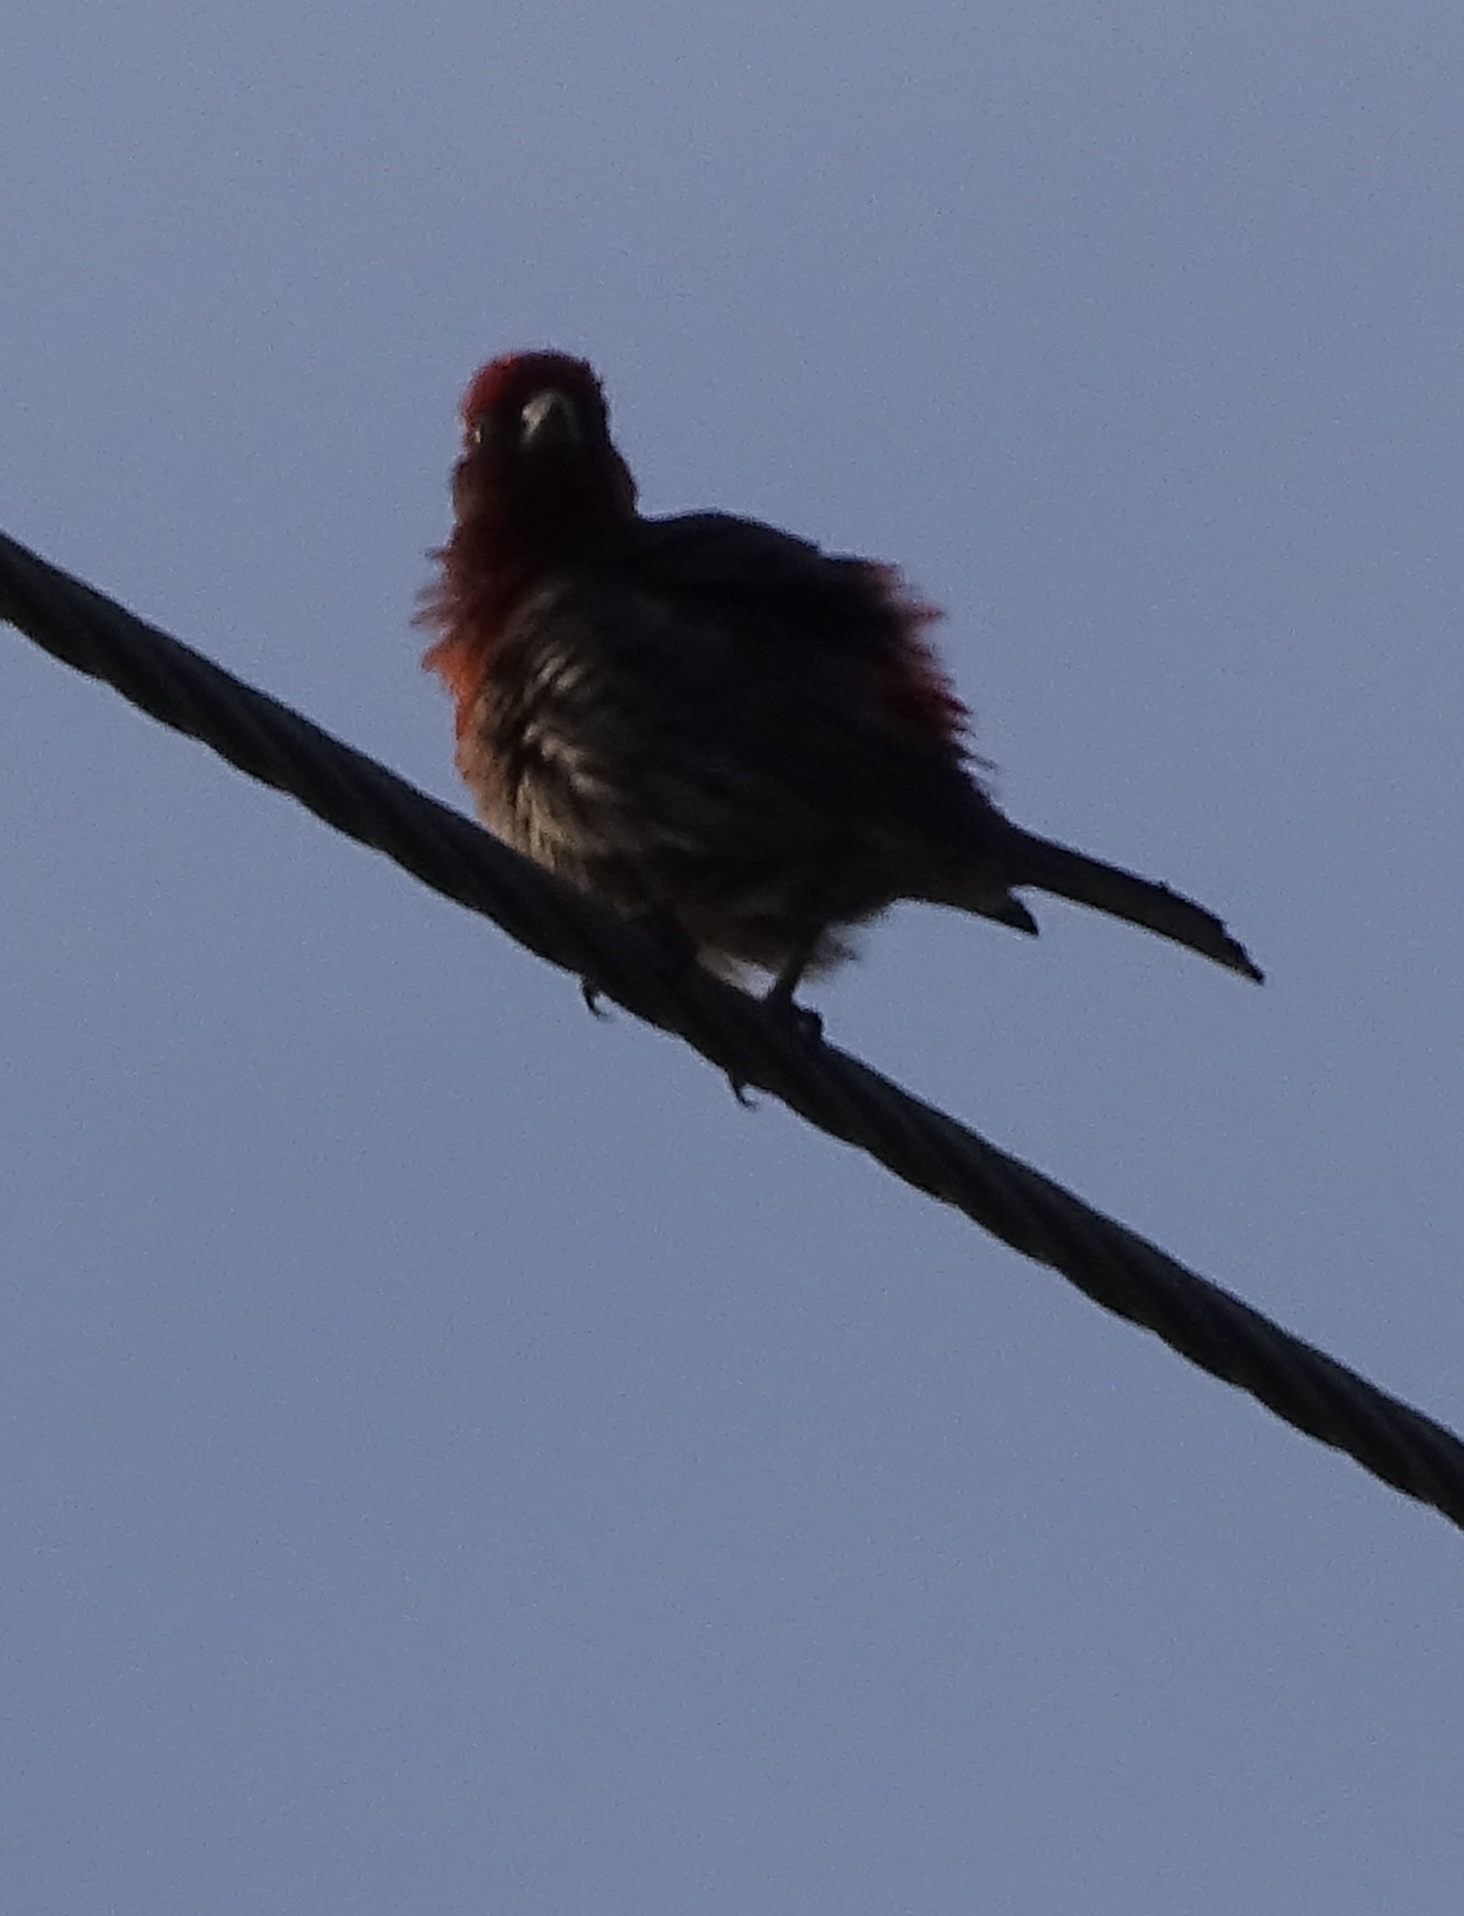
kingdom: Animalia
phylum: Chordata
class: Aves
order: Passeriformes
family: Fringillidae
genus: Haemorhous
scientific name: Haemorhous mexicanus
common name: House finch
